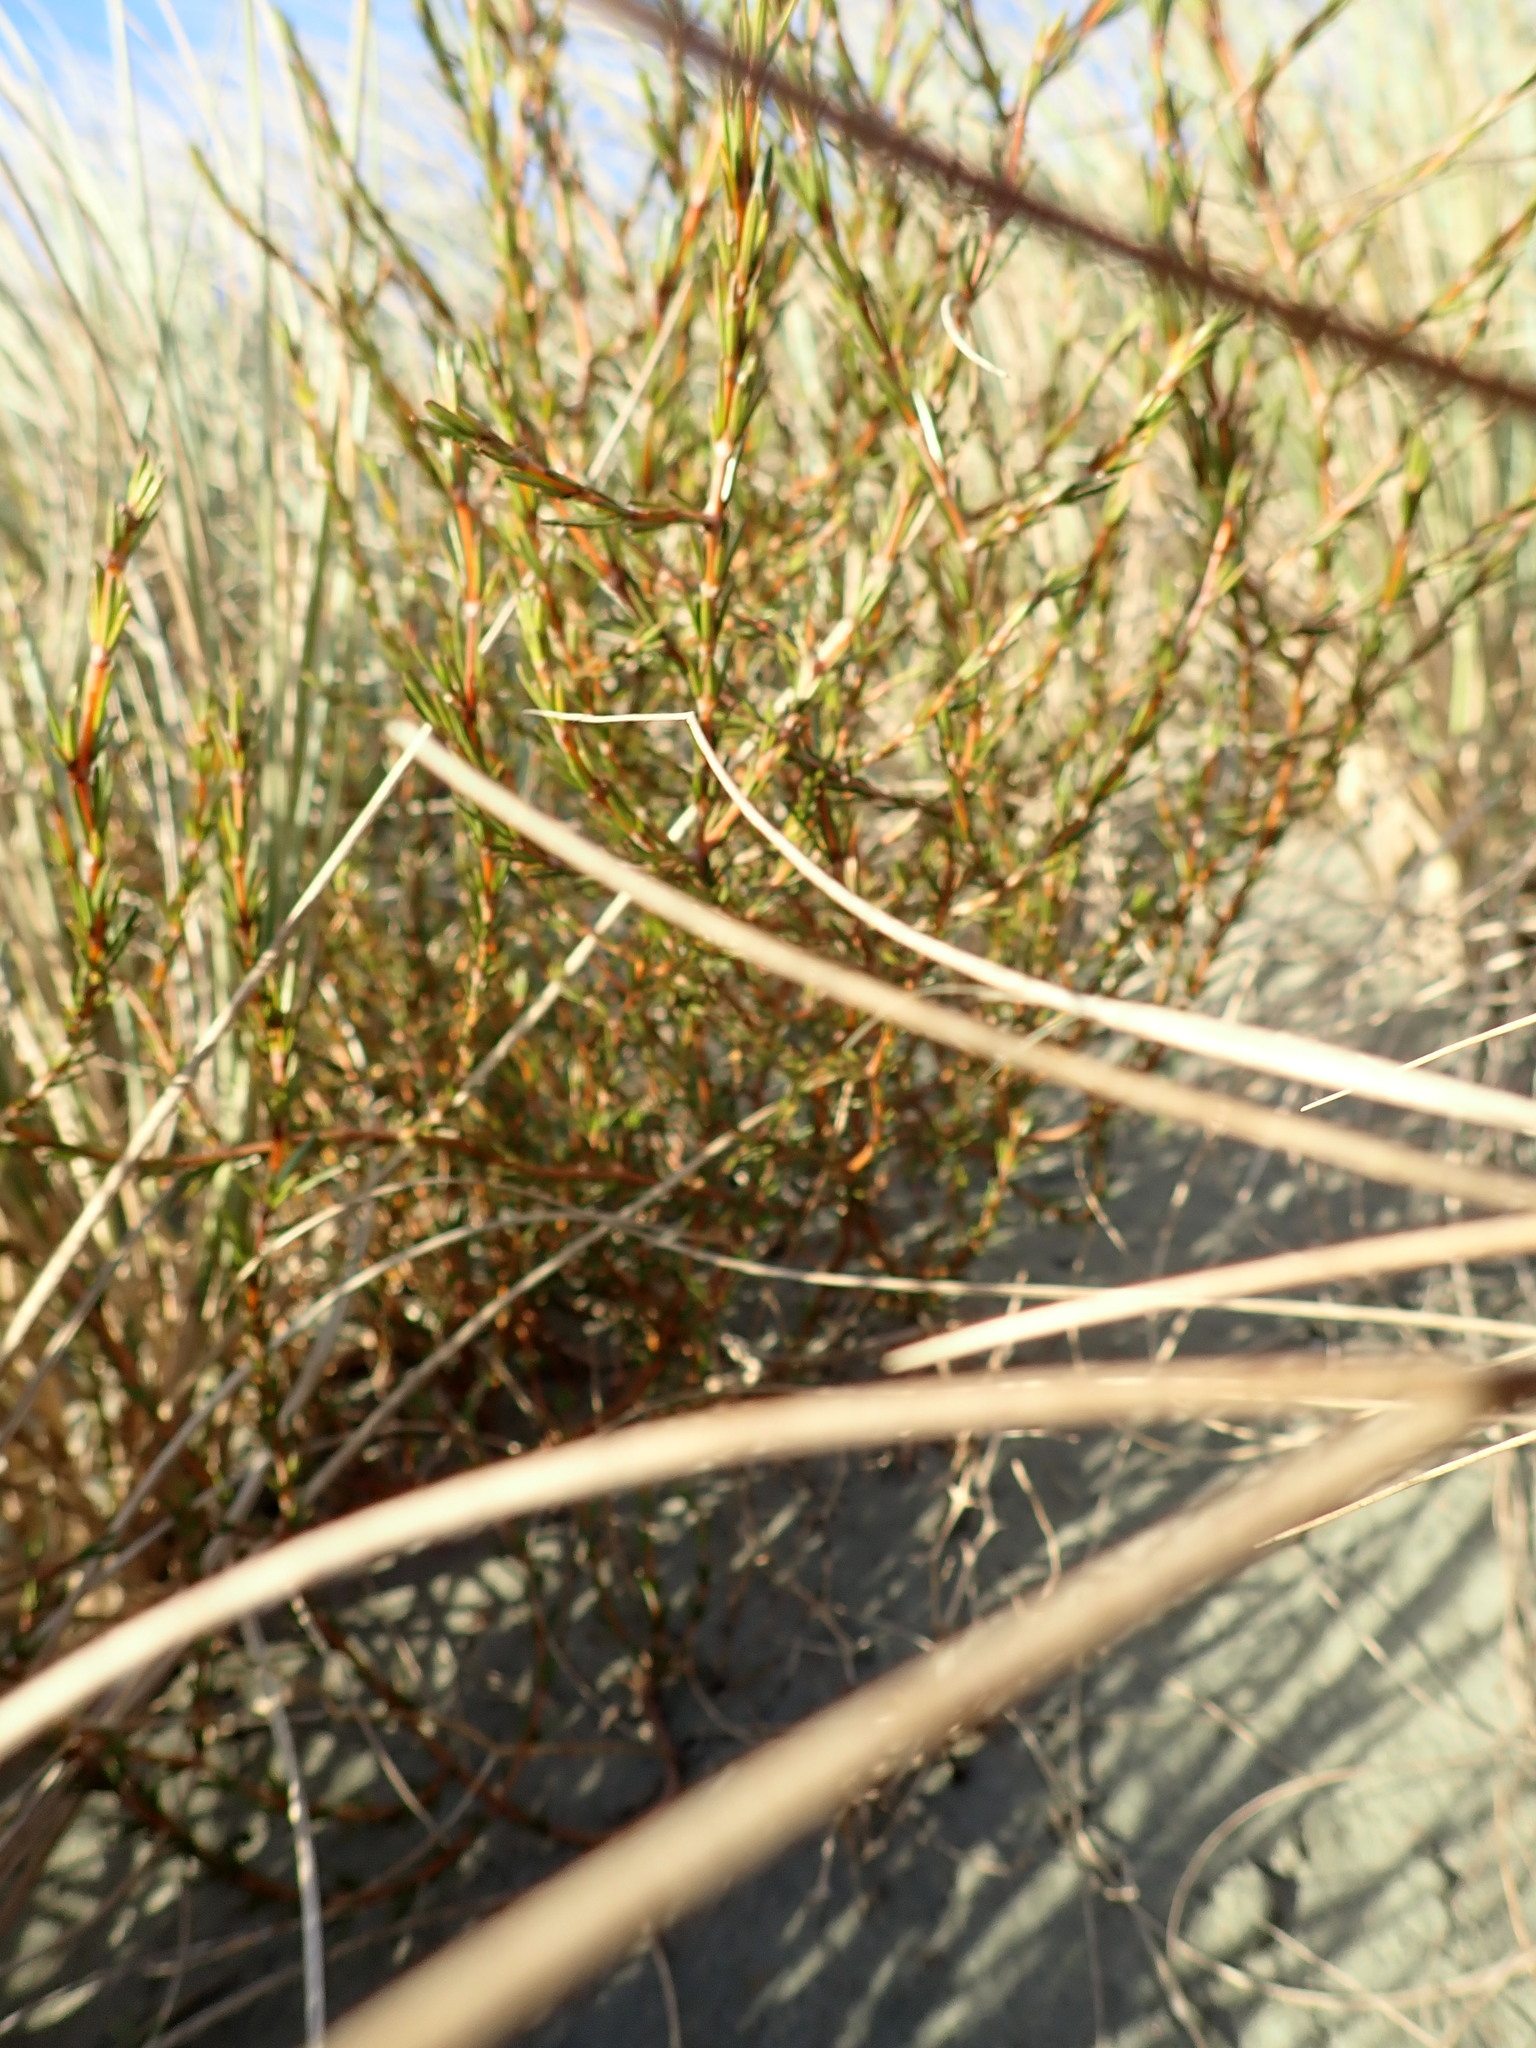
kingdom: Plantae
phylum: Tracheophyta
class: Magnoliopsida
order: Gentianales
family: Rubiaceae
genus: Coprosma
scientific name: Coprosma acerosa
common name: Sand coprosma
